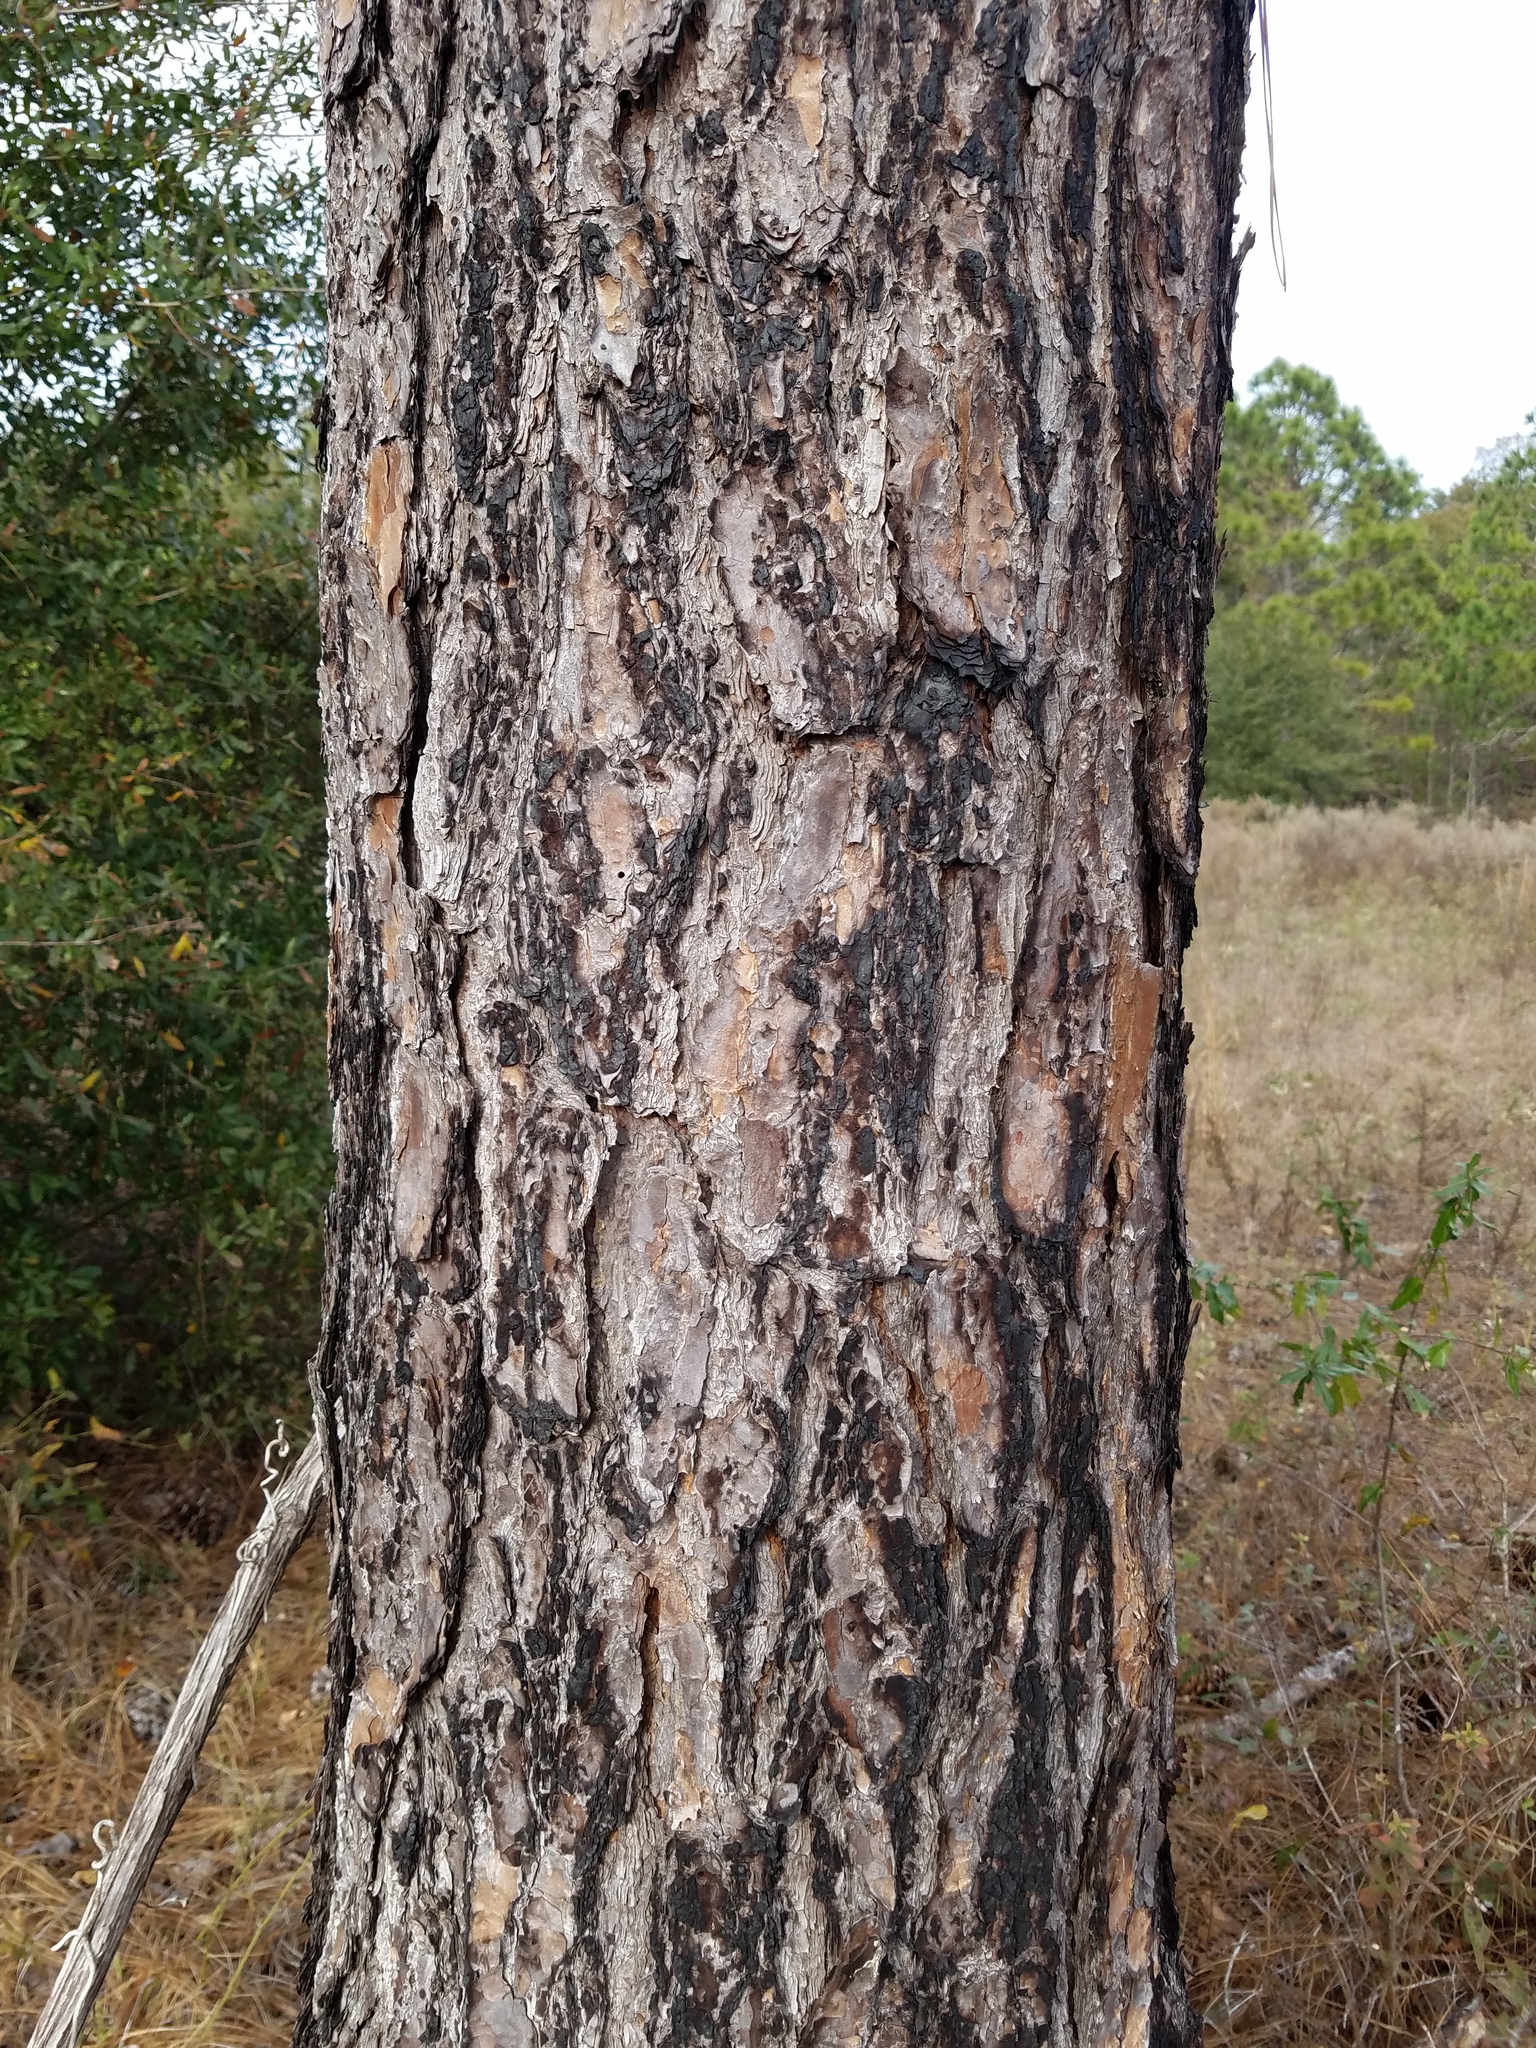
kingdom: Plantae
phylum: Tracheophyta
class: Pinopsida
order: Pinales
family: Pinaceae
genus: Pinus
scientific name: Pinus palustris
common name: Longleaf pine
